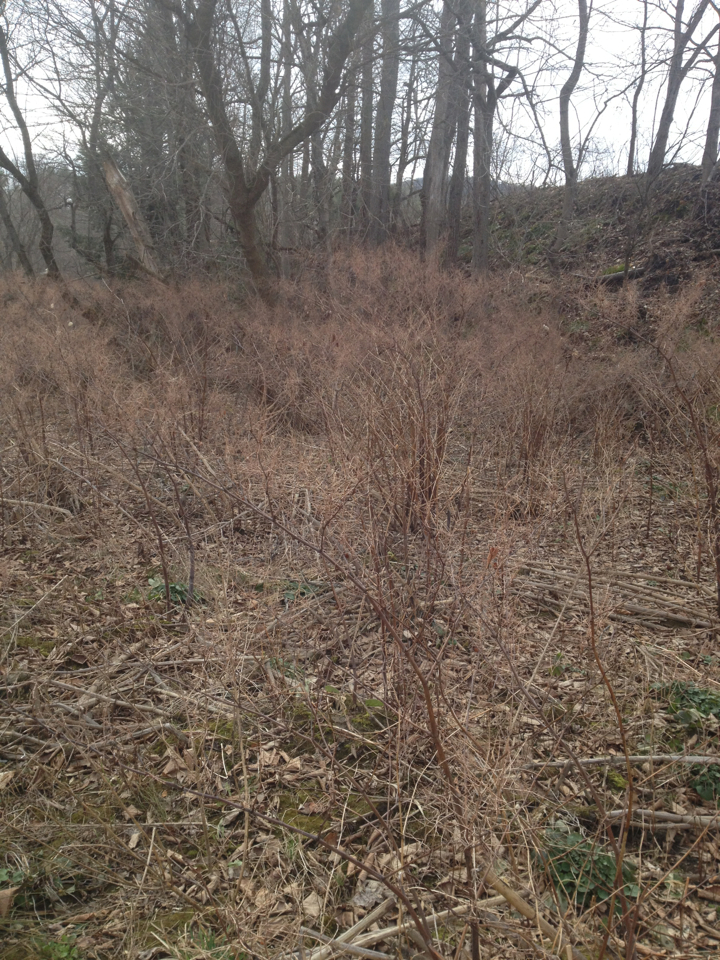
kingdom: Plantae
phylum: Tracheophyta
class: Magnoliopsida
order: Caryophyllales
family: Polygonaceae
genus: Reynoutria
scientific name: Reynoutria japonica
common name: Japanese knotweed
